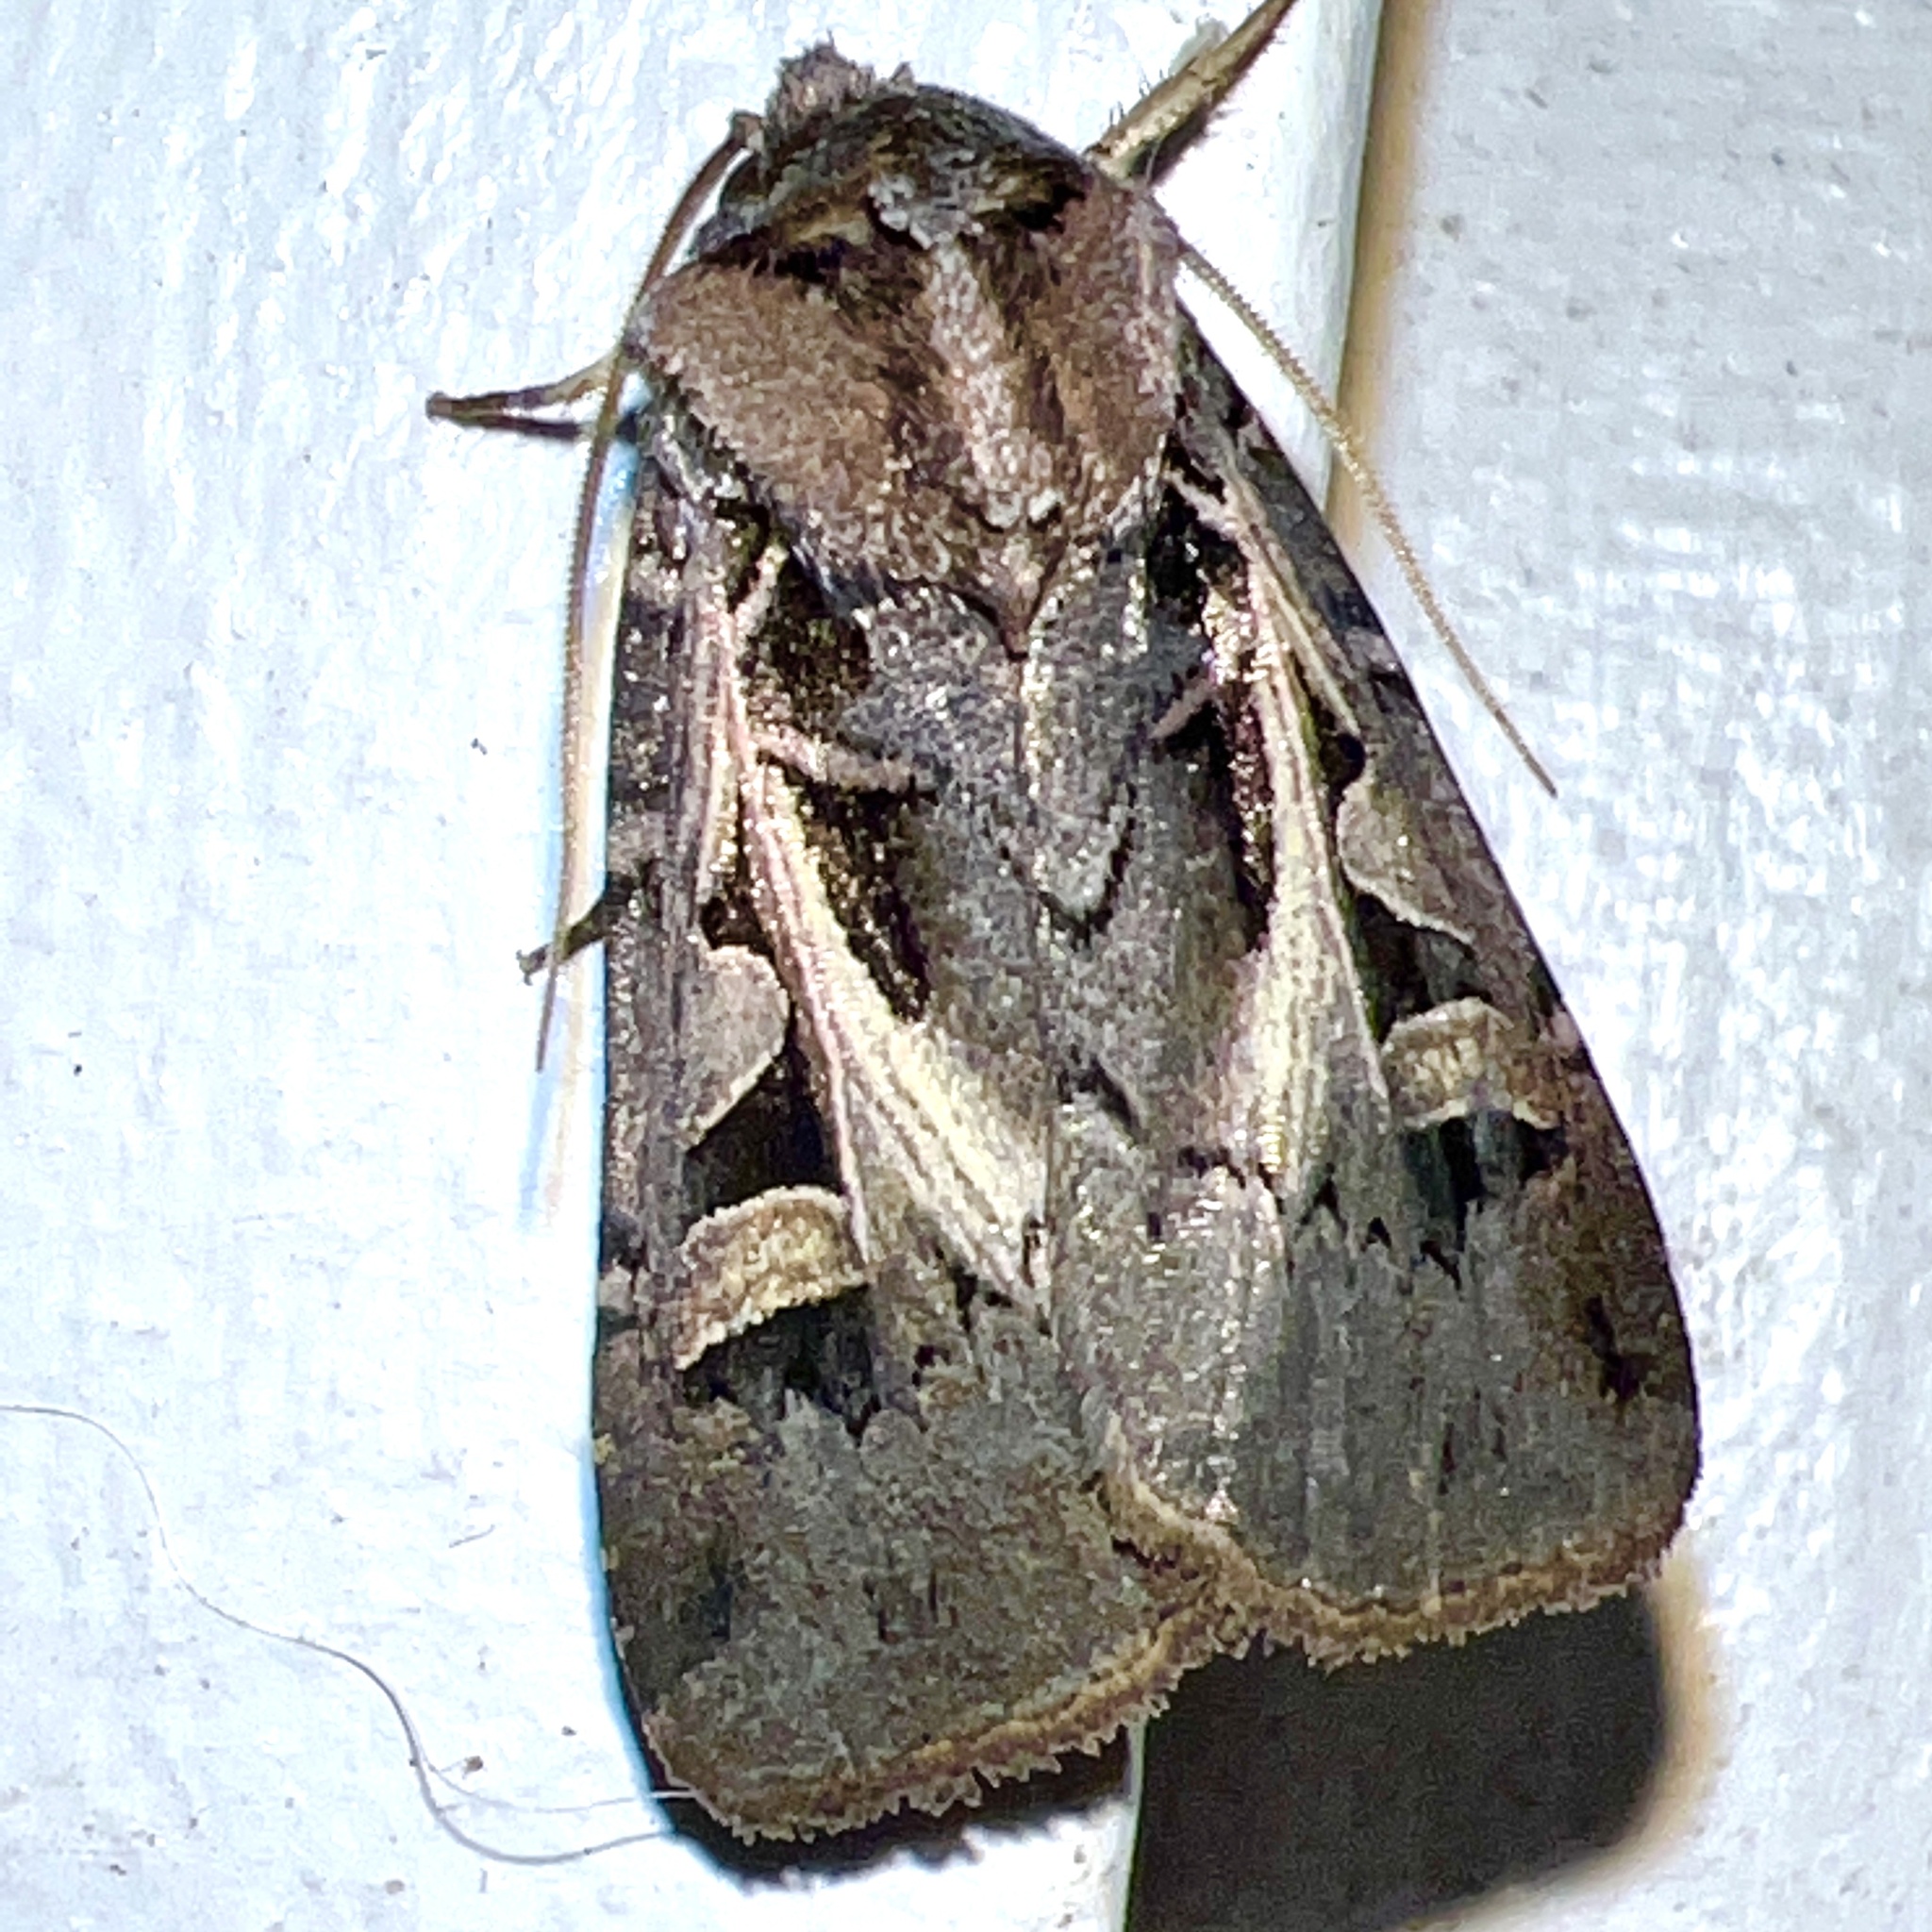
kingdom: Animalia
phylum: Arthropoda
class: Insecta
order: Lepidoptera
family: Noctuidae
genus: Feltia
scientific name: Feltia herilis
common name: Master's dart
